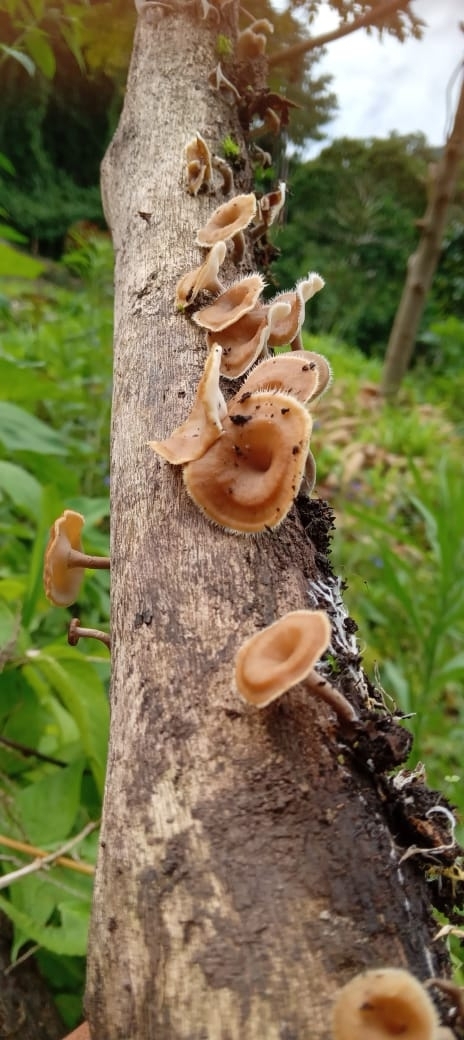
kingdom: Fungi
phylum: Basidiomycota
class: Agaricomycetes
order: Polyporales
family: Polyporaceae
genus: Lentinus
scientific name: Lentinus flexipes
